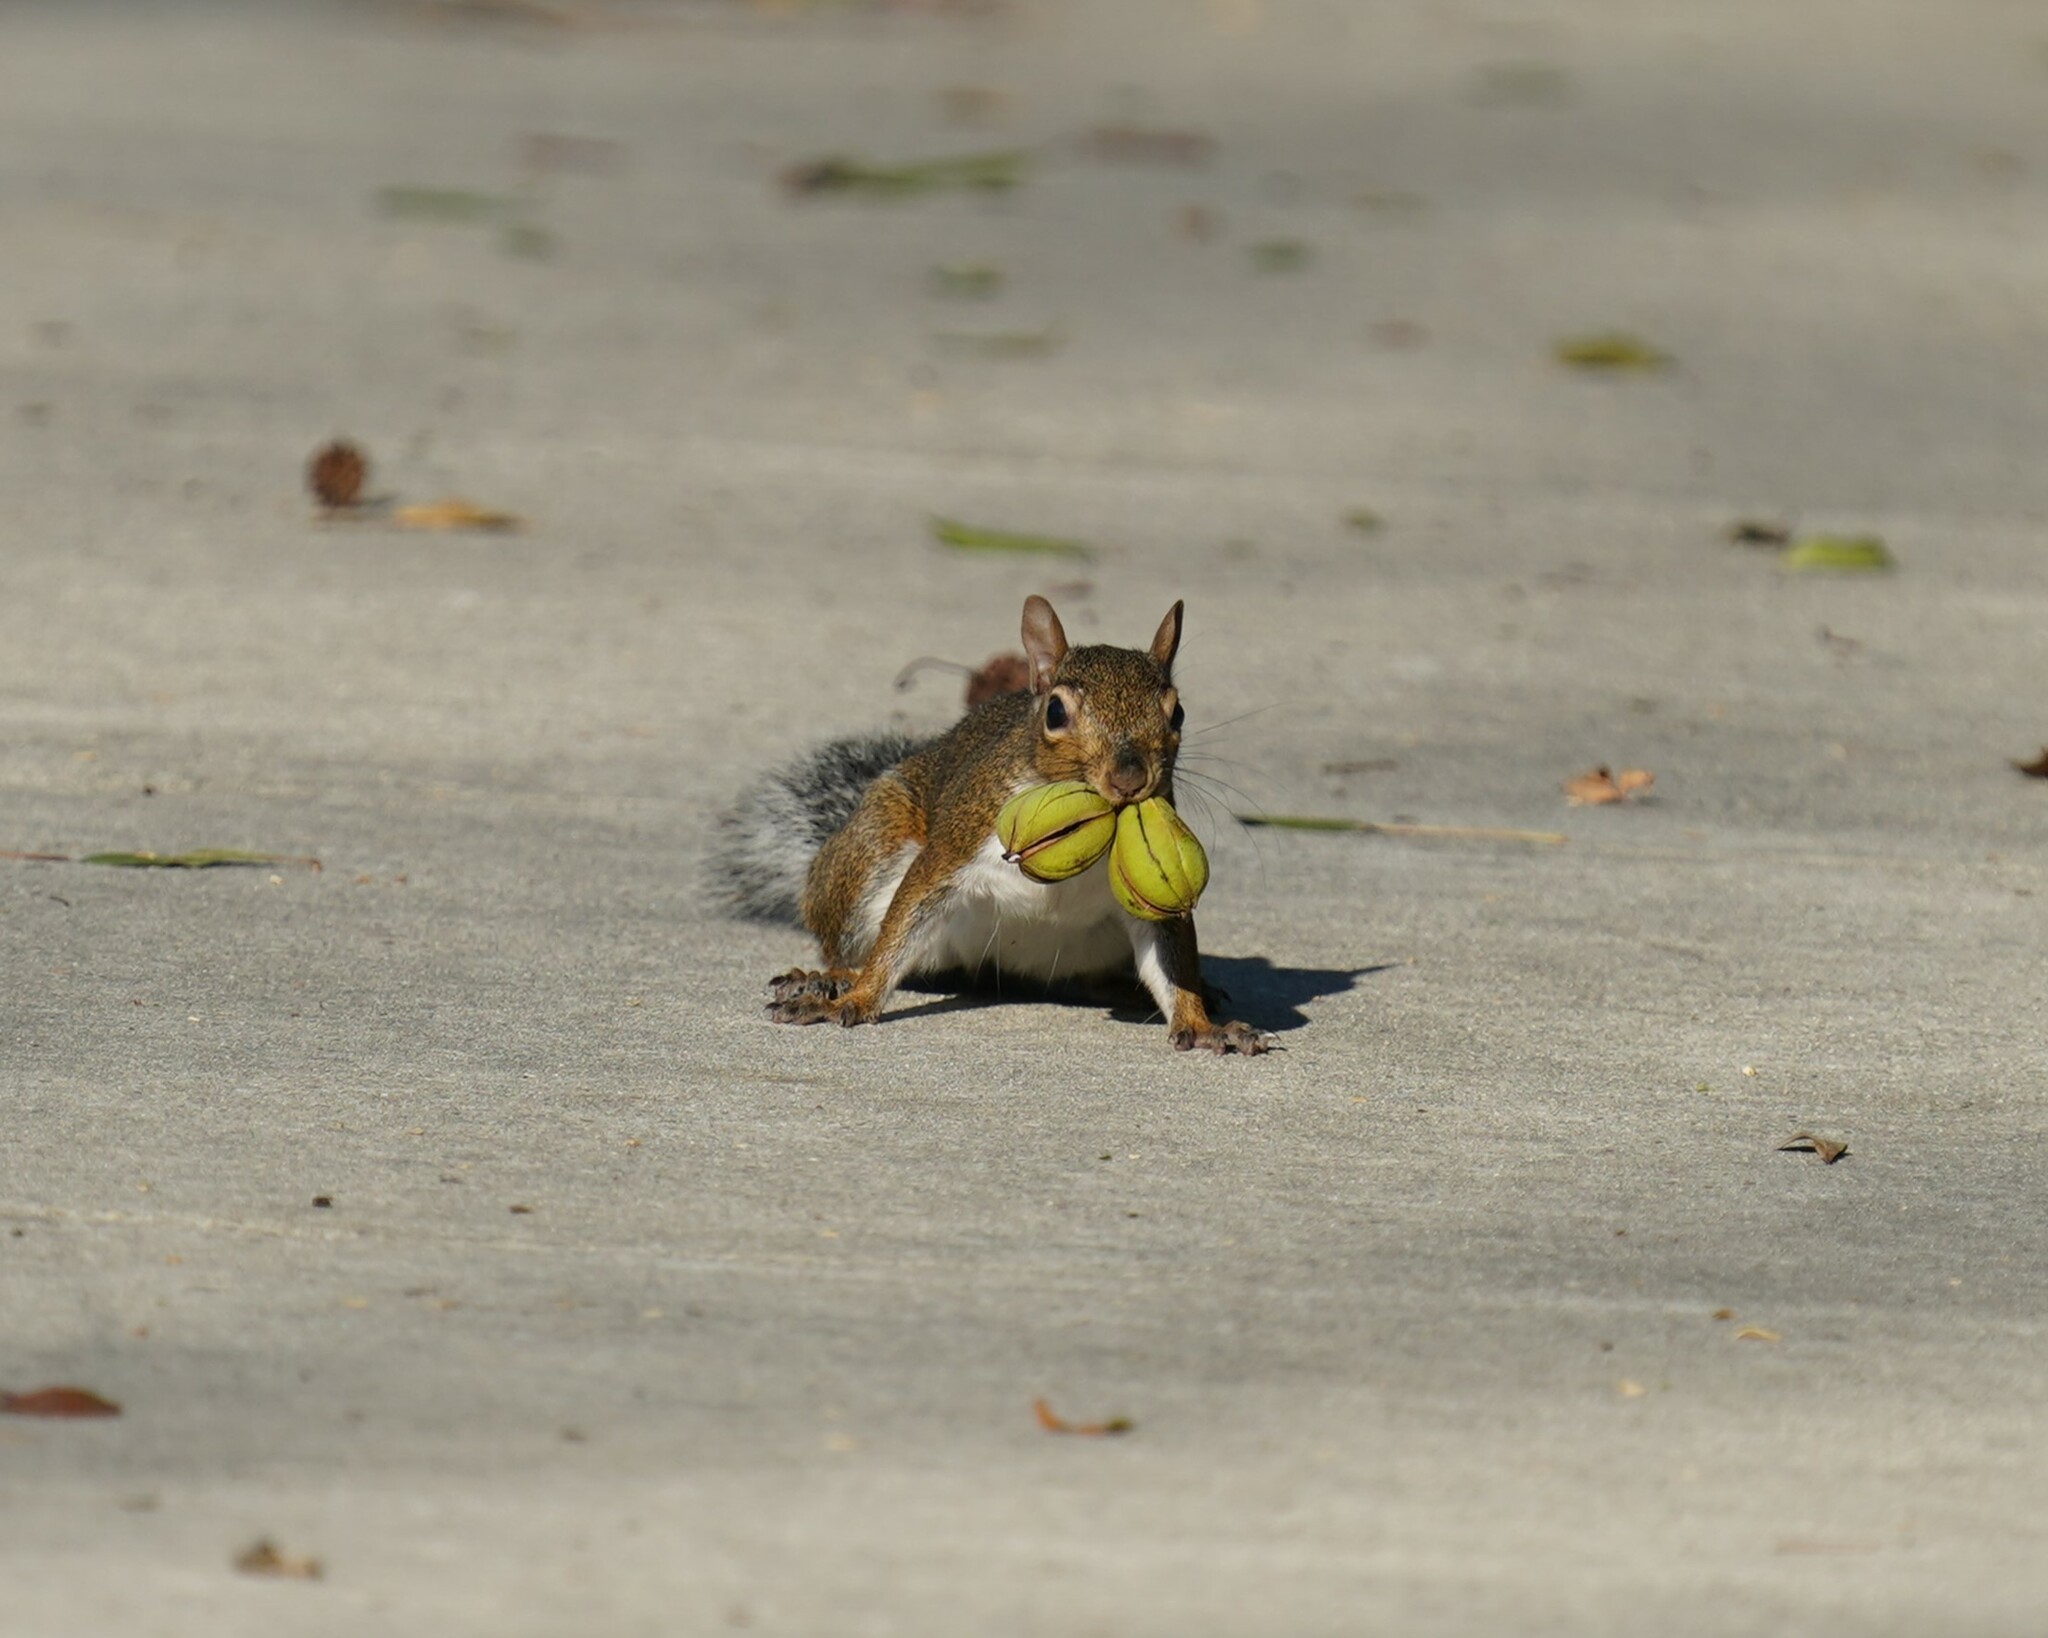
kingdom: Animalia
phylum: Chordata
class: Mammalia
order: Rodentia
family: Sciuridae
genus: Sciurus
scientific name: Sciurus carolinensis
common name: Eastern gray squirrel
